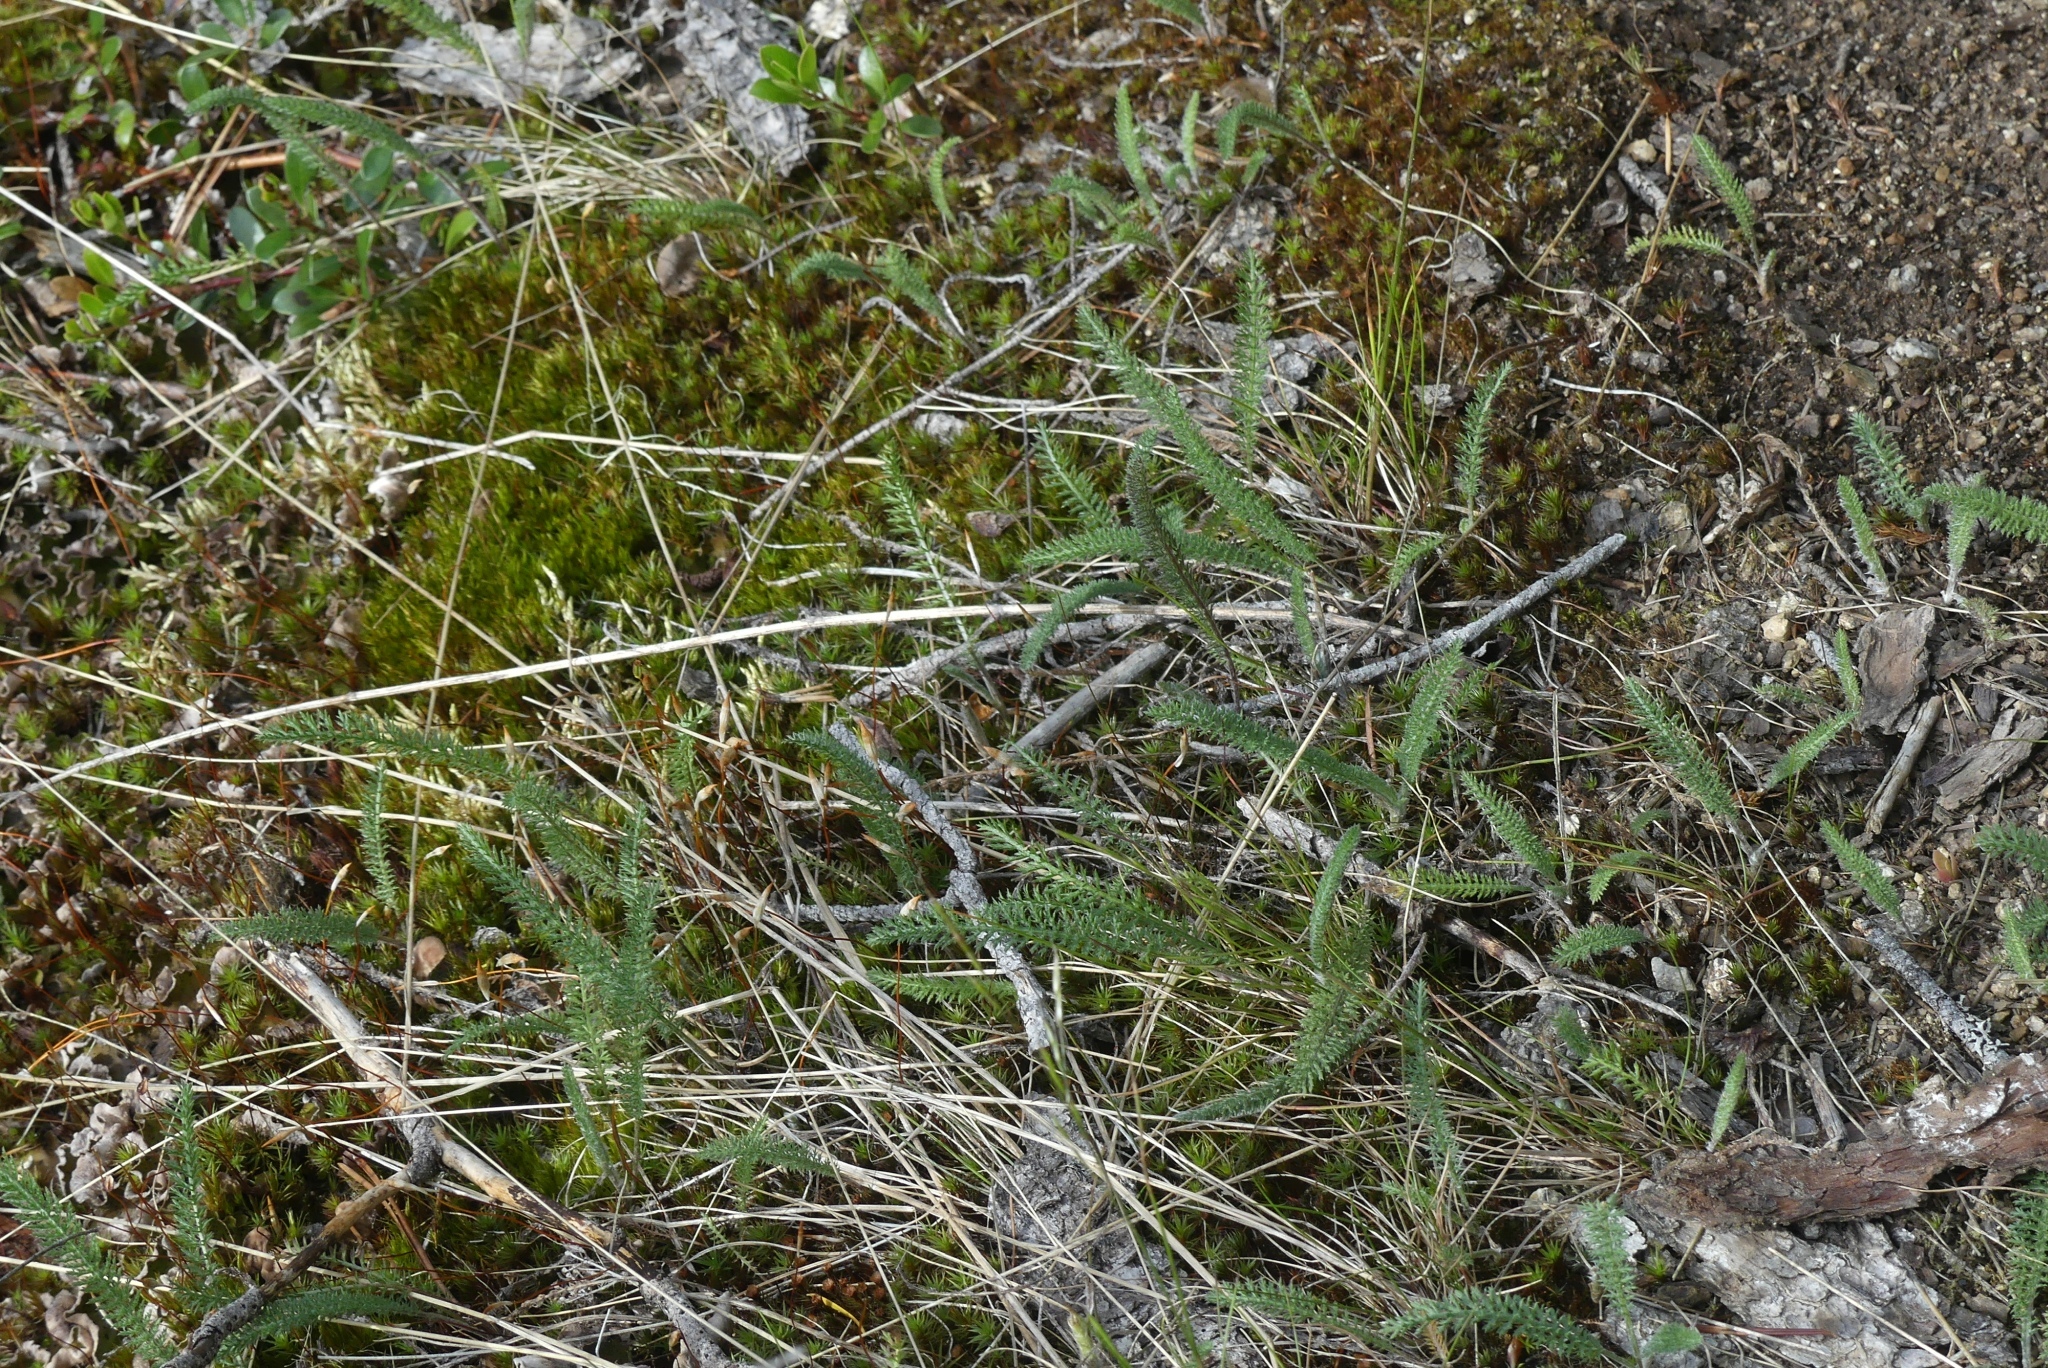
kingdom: Plantae
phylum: Tracheophyta
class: Magnoliopsida
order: Asterales
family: Asteraceae
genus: Achillea
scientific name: Achillea millefolium
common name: Yarrow
